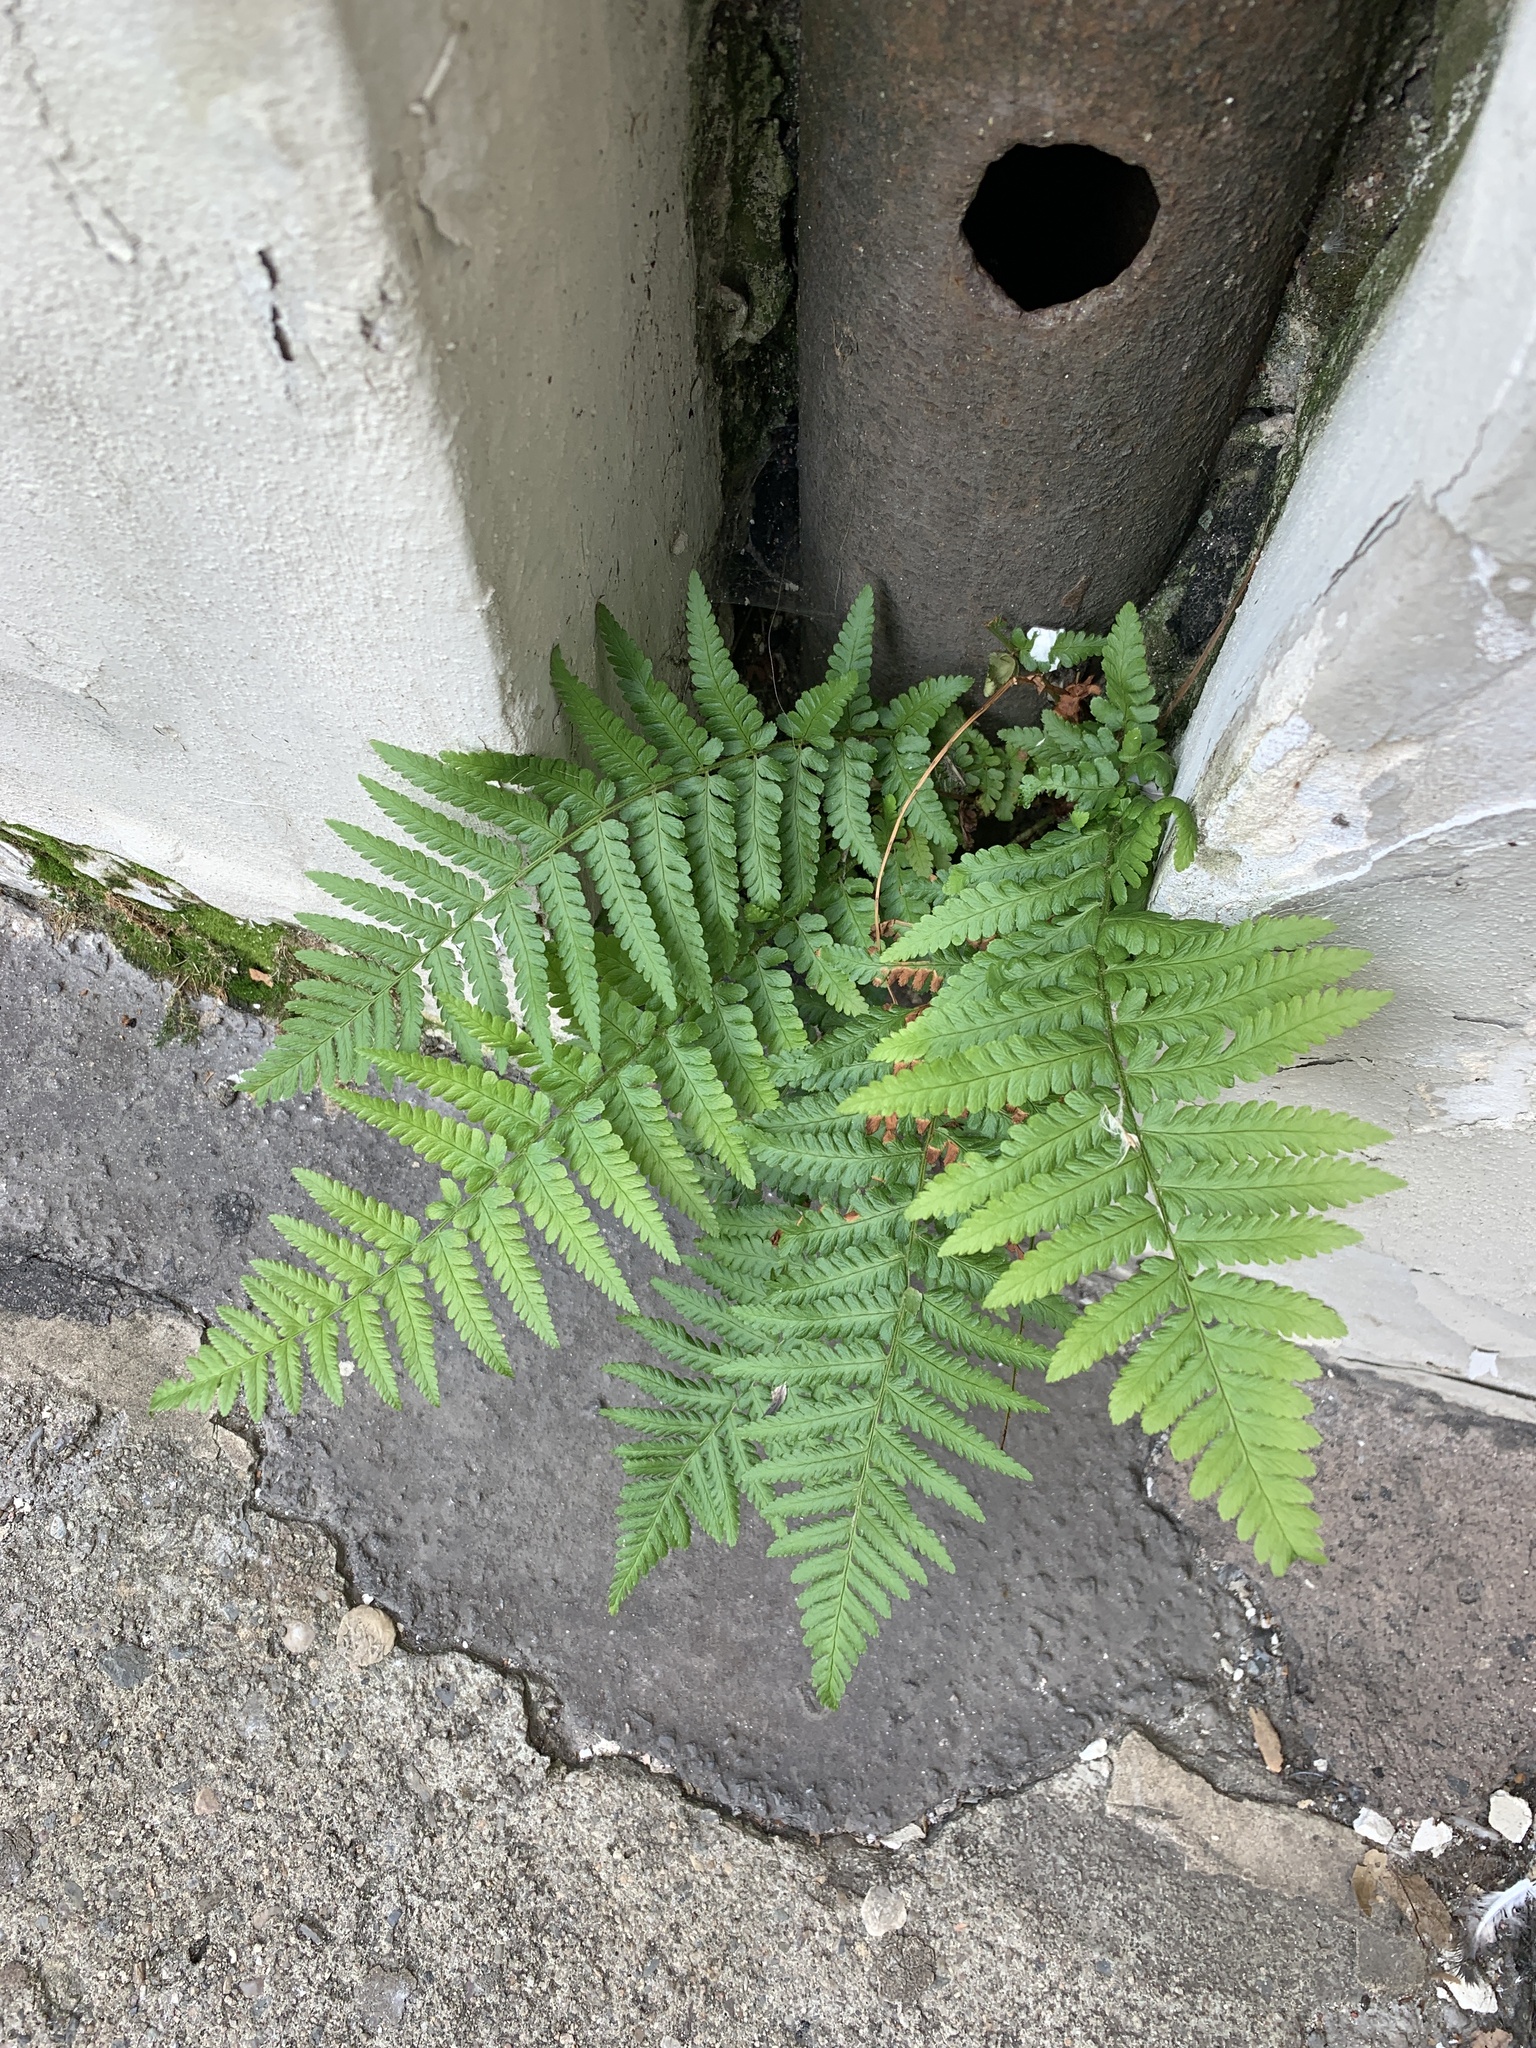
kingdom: Plantae
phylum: Tracheophyta
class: Polypodiopsida
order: Polypodiales
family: Dryopteridaceae
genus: Dryopteris
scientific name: Dryopteris filix-mas
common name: Male fern
